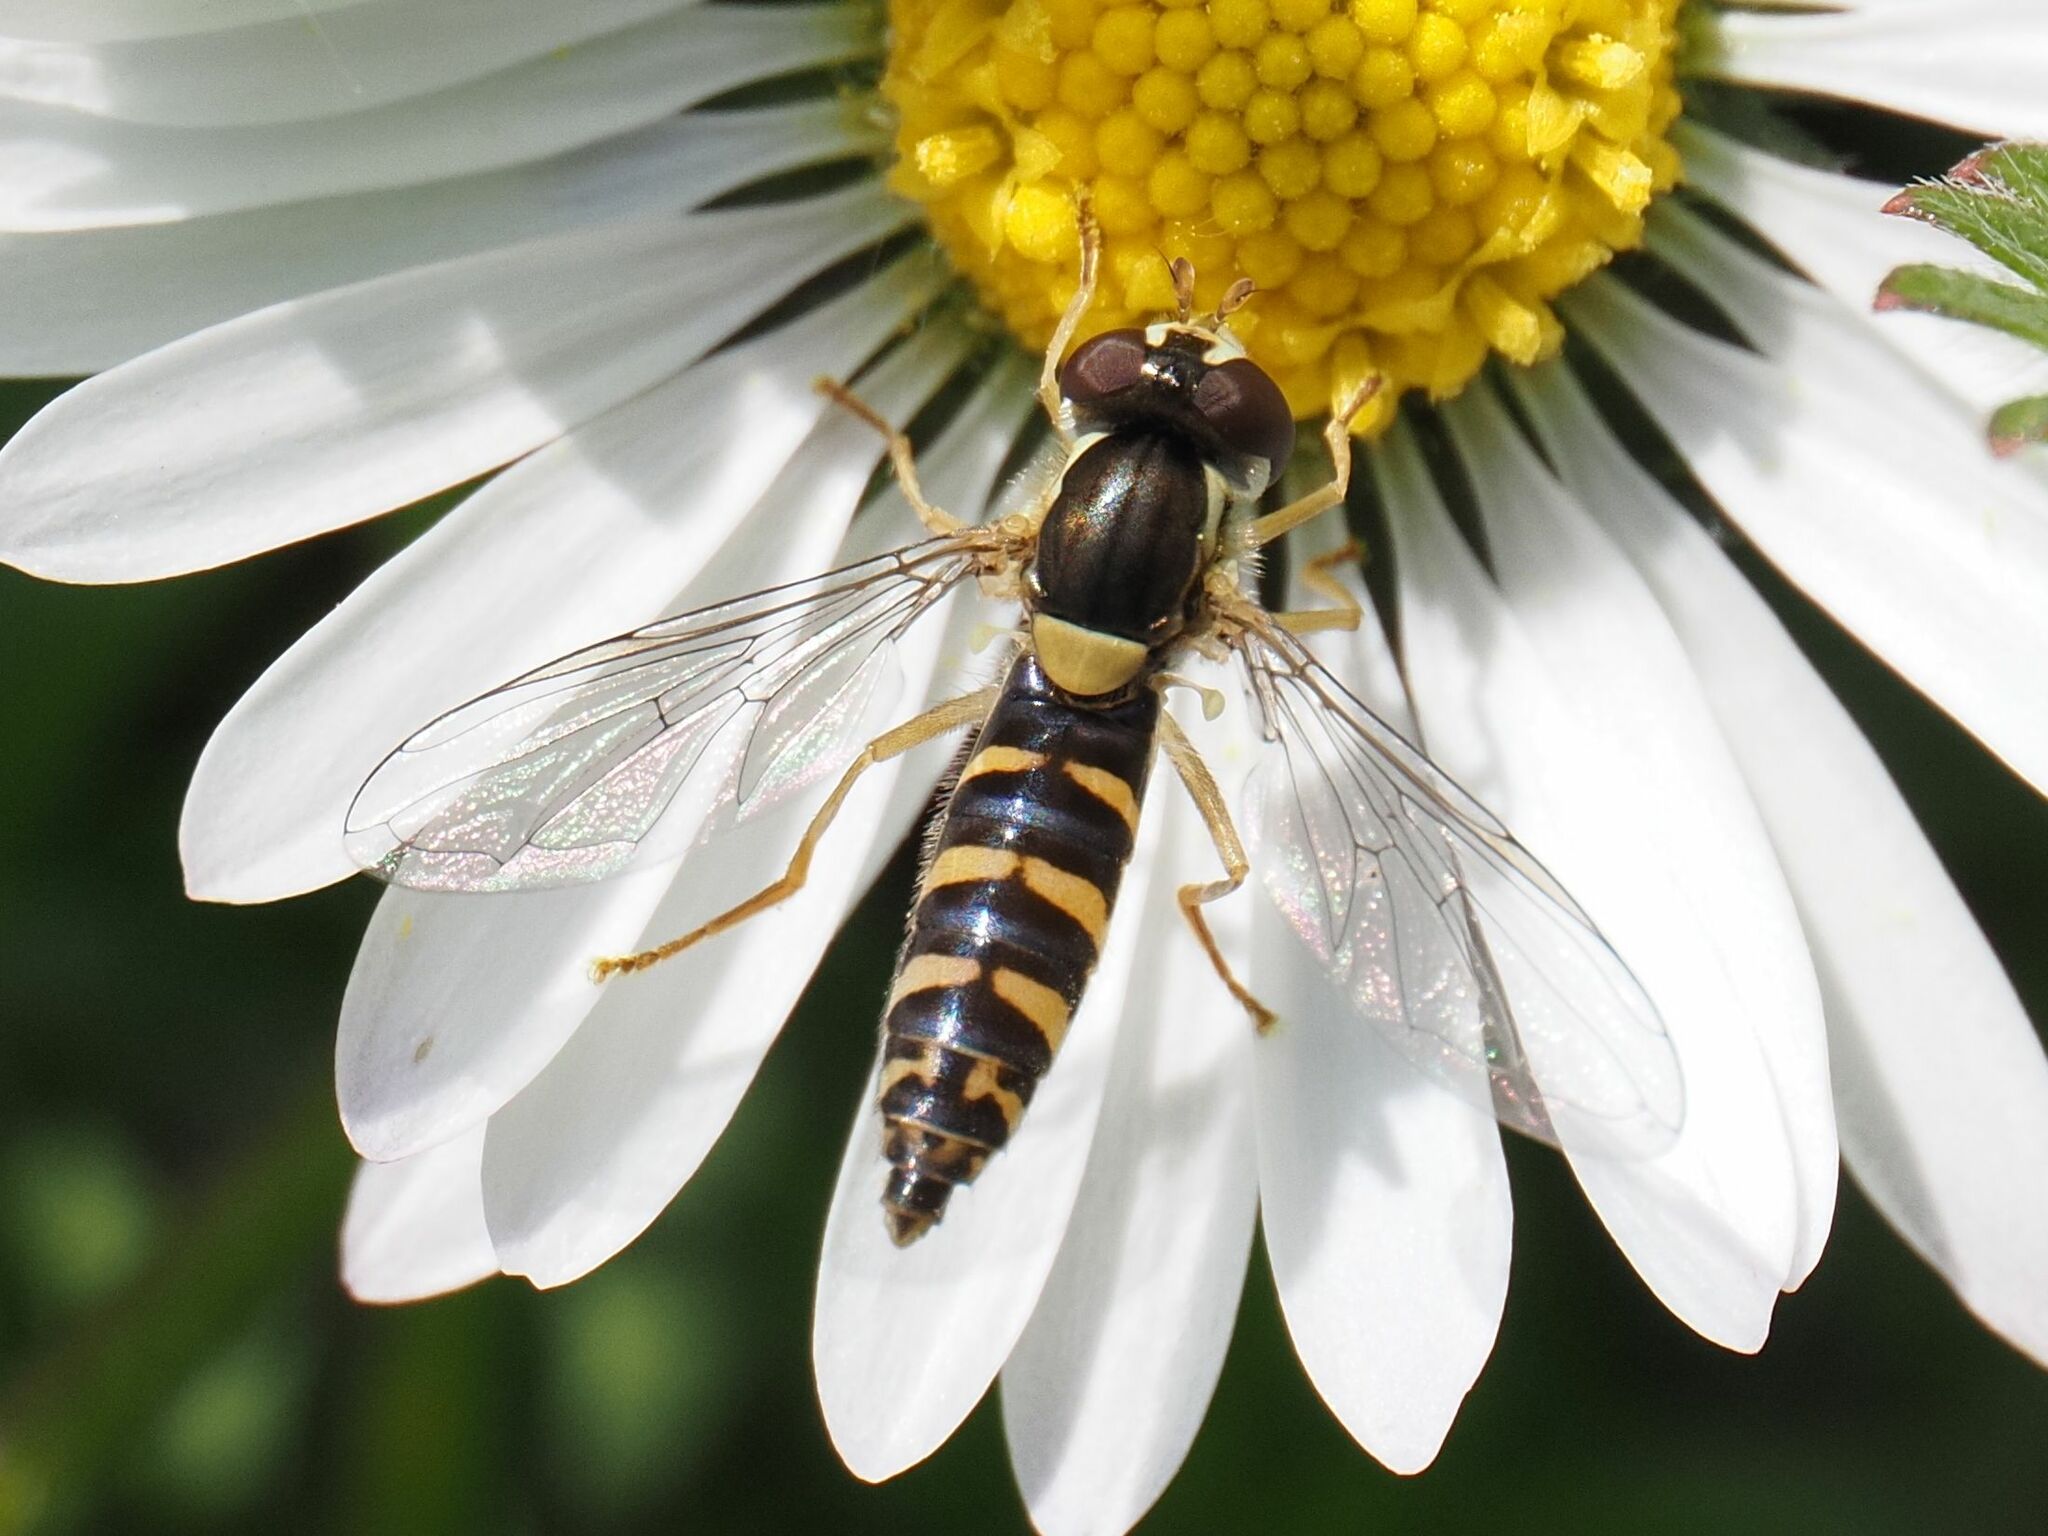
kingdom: Animalia
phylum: Arthropoda
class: Insecta
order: Diptera
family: Syrphidae
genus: Sphaerophoria
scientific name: Sphaerophoria
